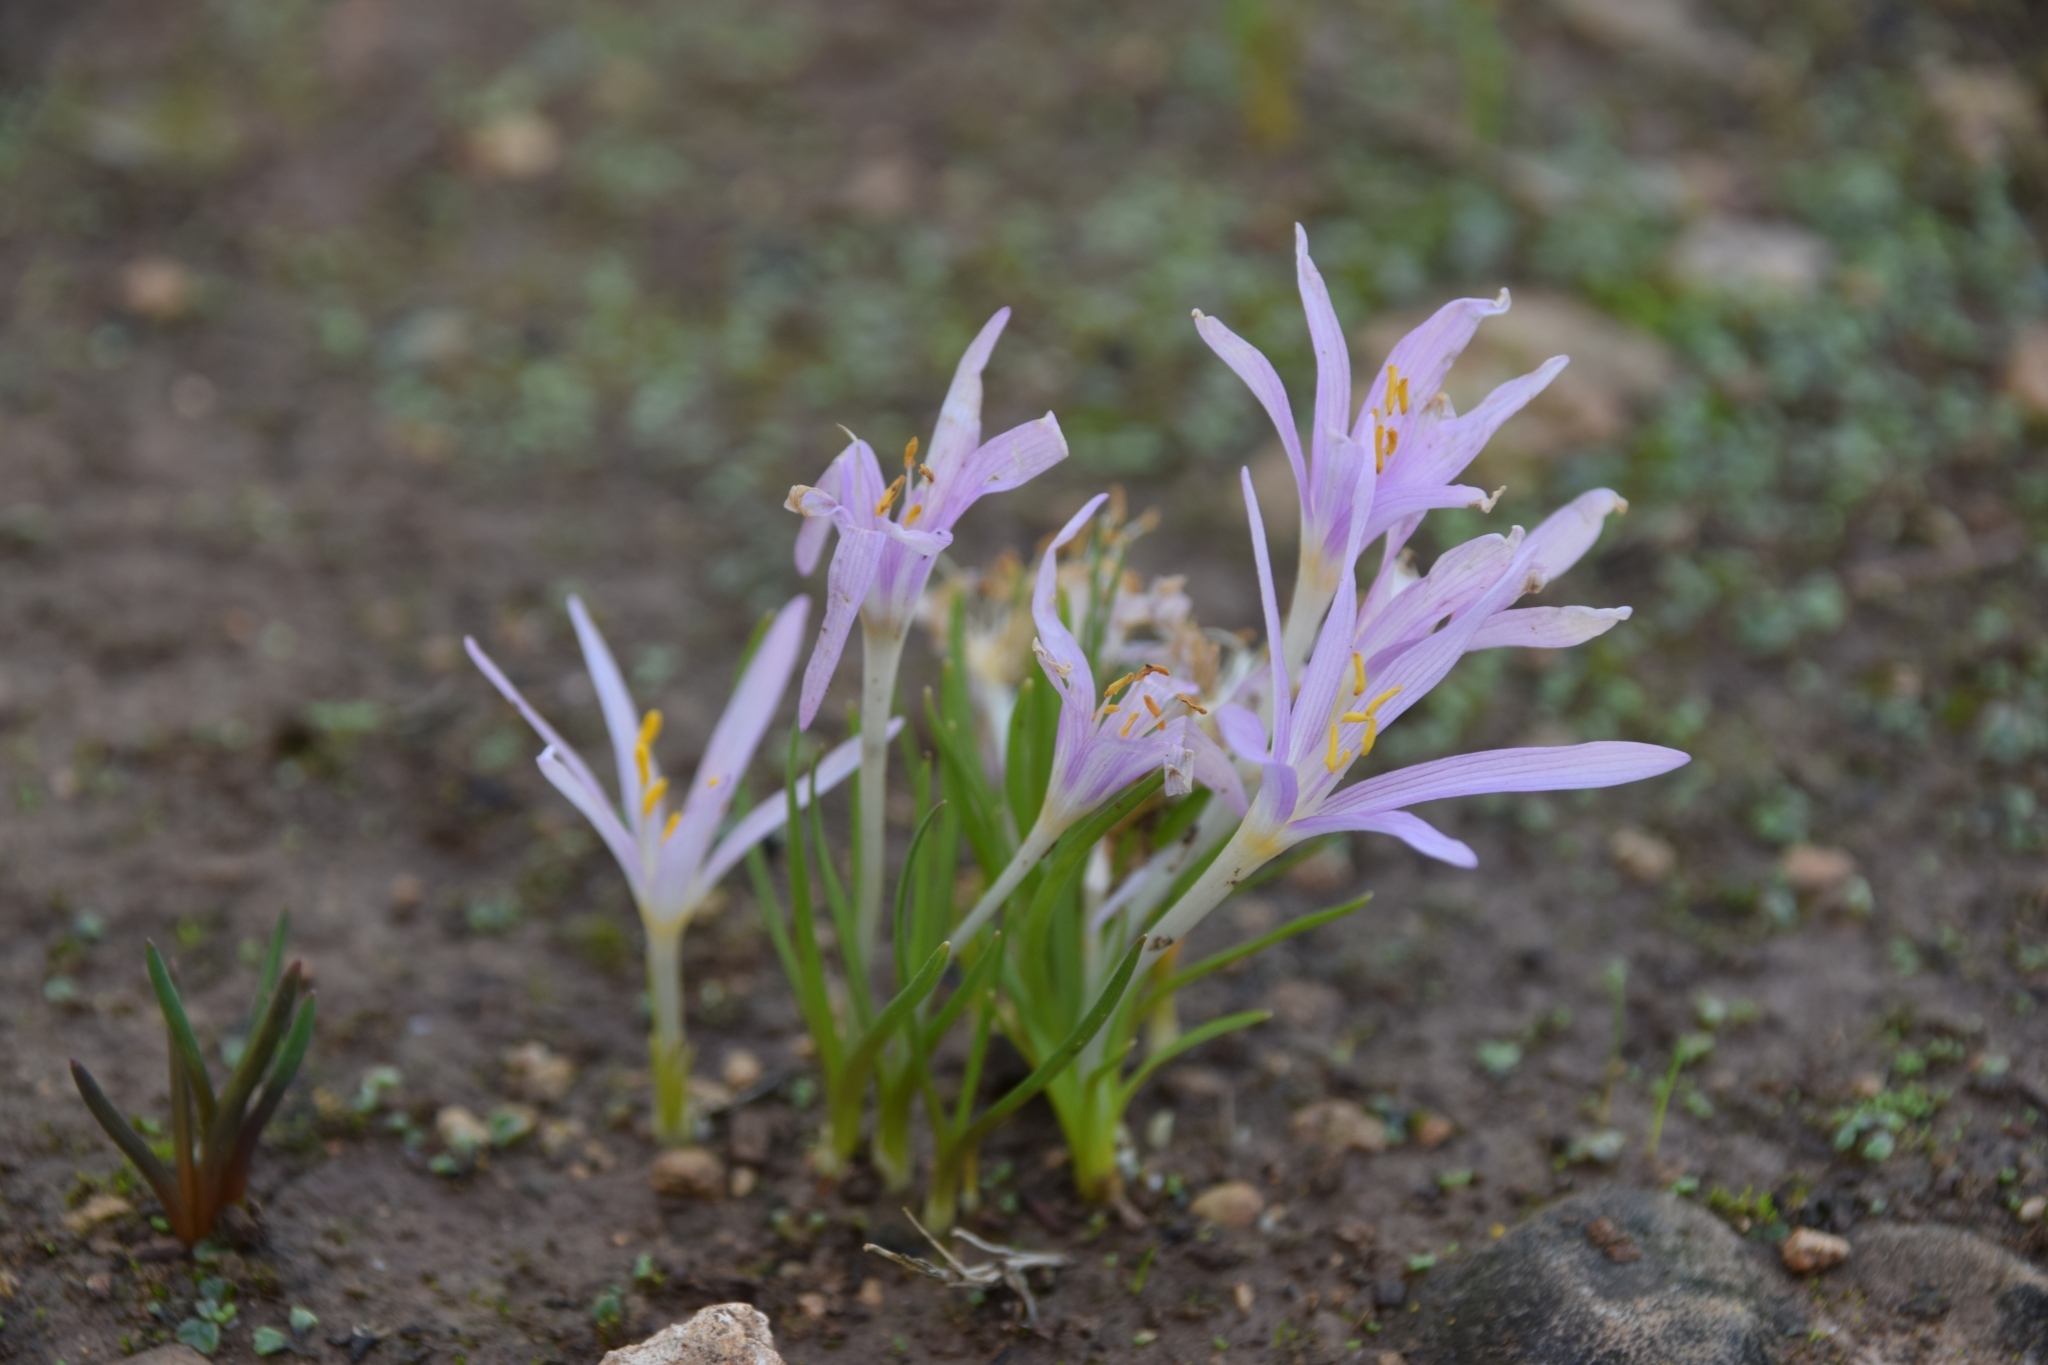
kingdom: Plantae
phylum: Tracheophyta
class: Liliopsida
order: Liliales
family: Colchicaceae
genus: Colchicum
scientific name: Colchicum stevenii
